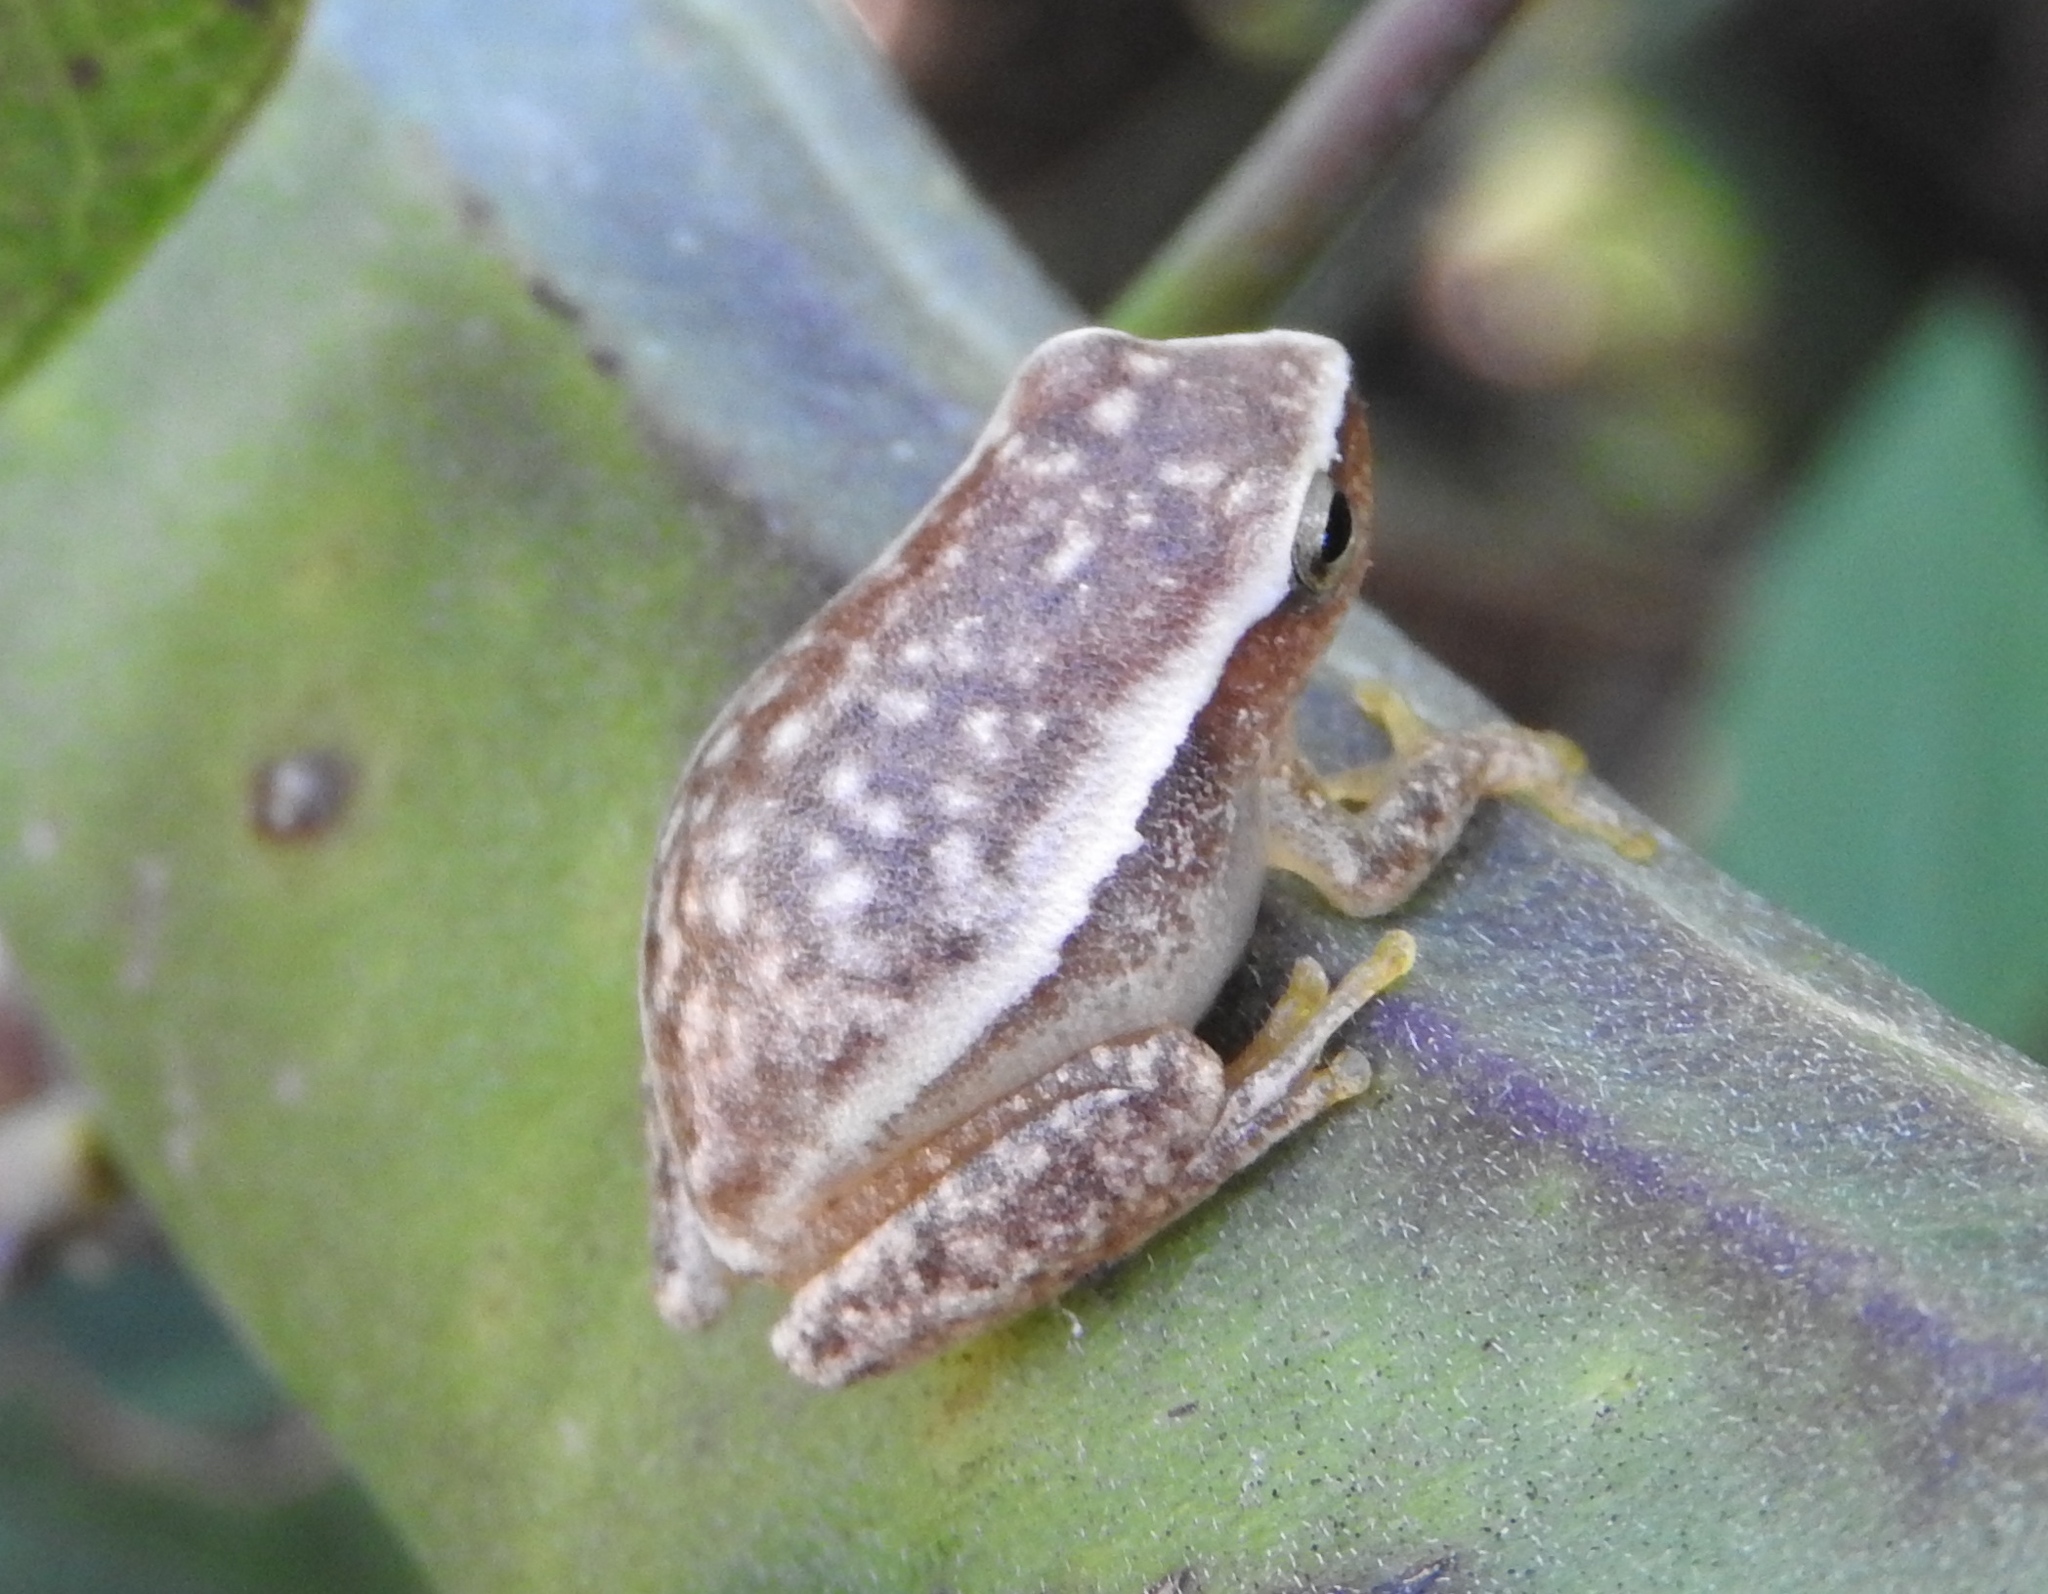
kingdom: Animalia
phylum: Chordata
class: Amphibia
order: Anura
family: Hylidae
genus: Tlalocohyla
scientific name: Tlalocohyla smithii
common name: Dwarf mexican treefrog
